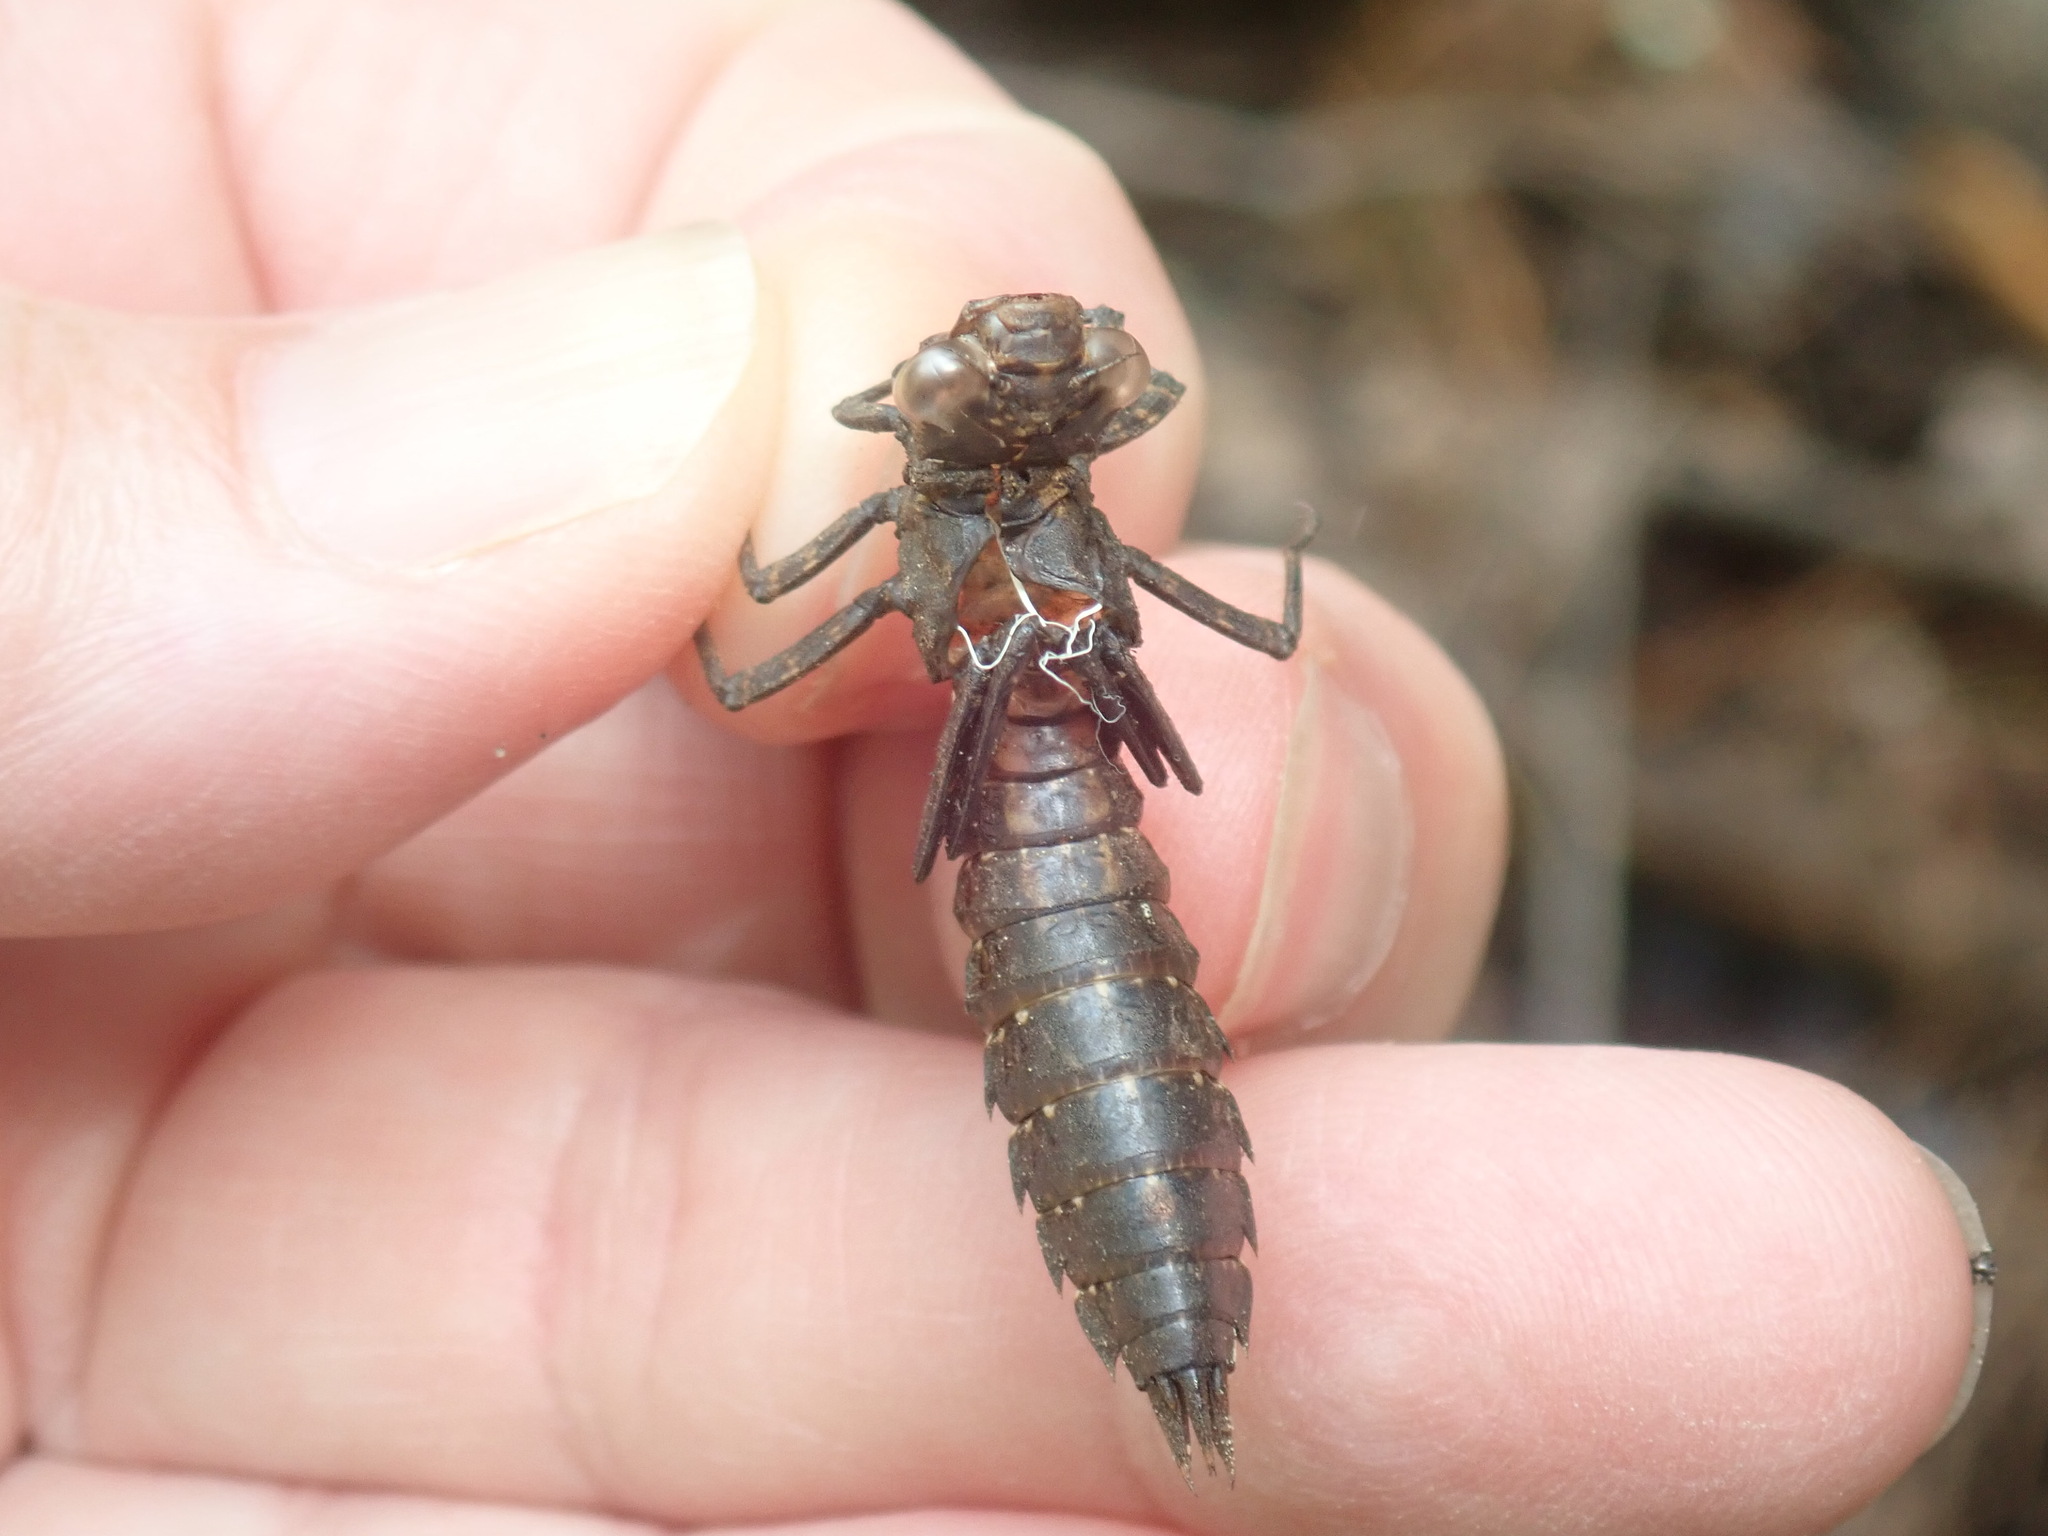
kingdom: Animalia
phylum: Arthropoda
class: Insecta
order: Odonata
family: Aeshnidae
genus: Boyeria
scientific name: Boyeria vinosa
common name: Fawn darner
